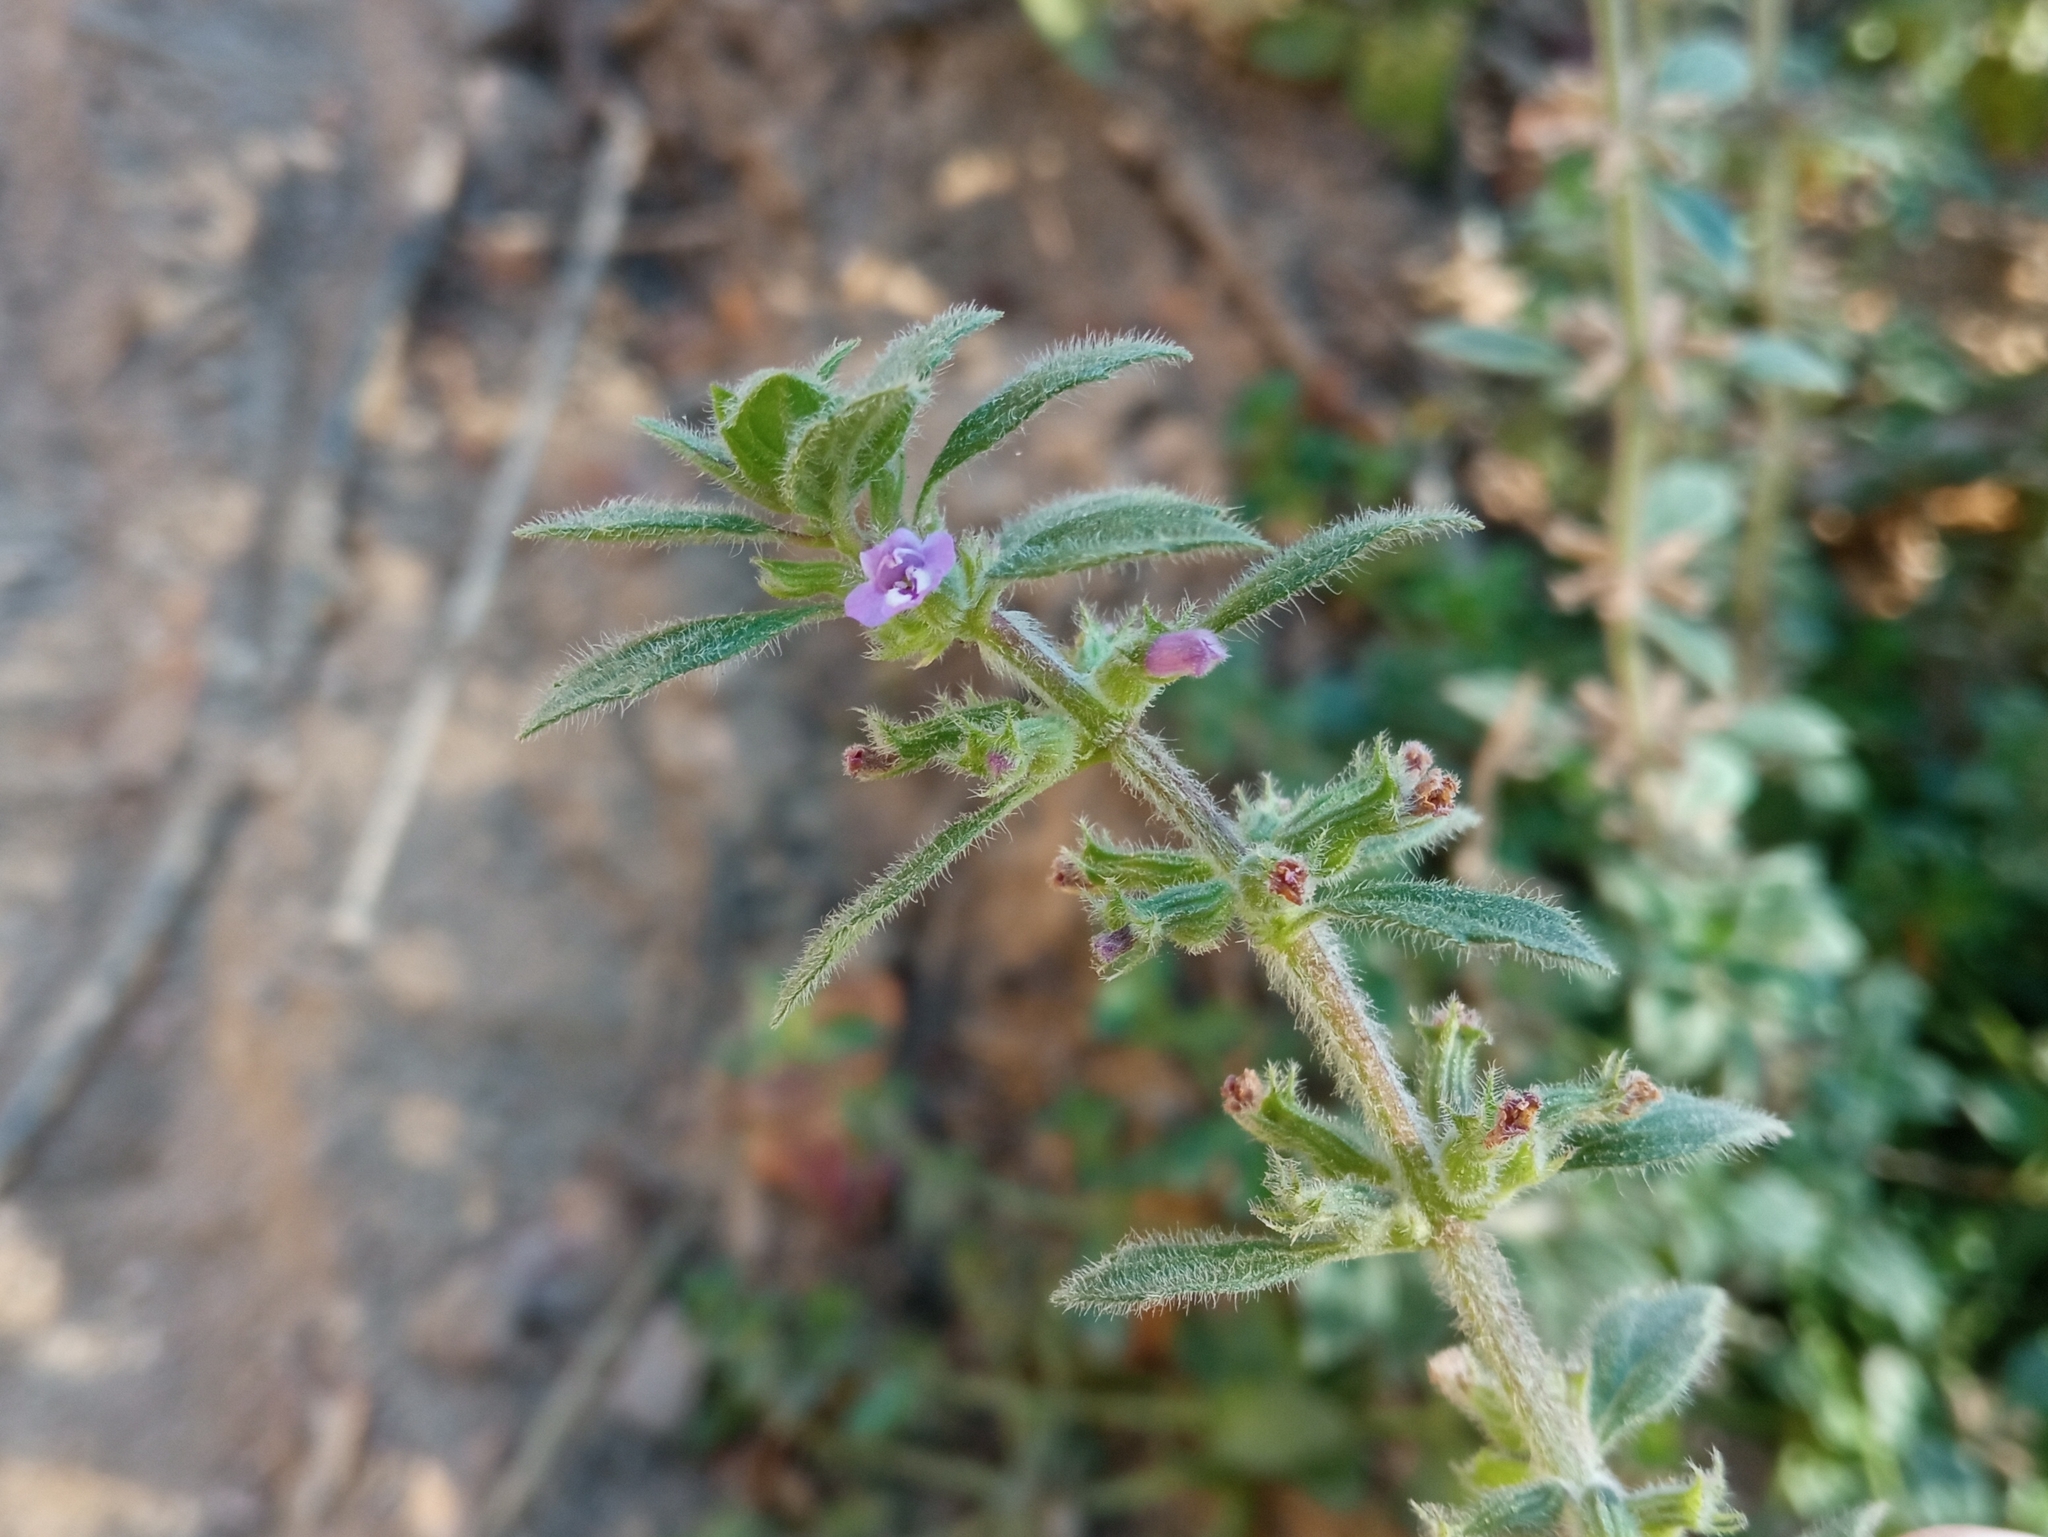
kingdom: Plantae
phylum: Tracheophyta
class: Magnoliopsida
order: Lamiales
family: Lamiaceae
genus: Clinopodium
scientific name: Clinopodium acinos
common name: Basil thyme
